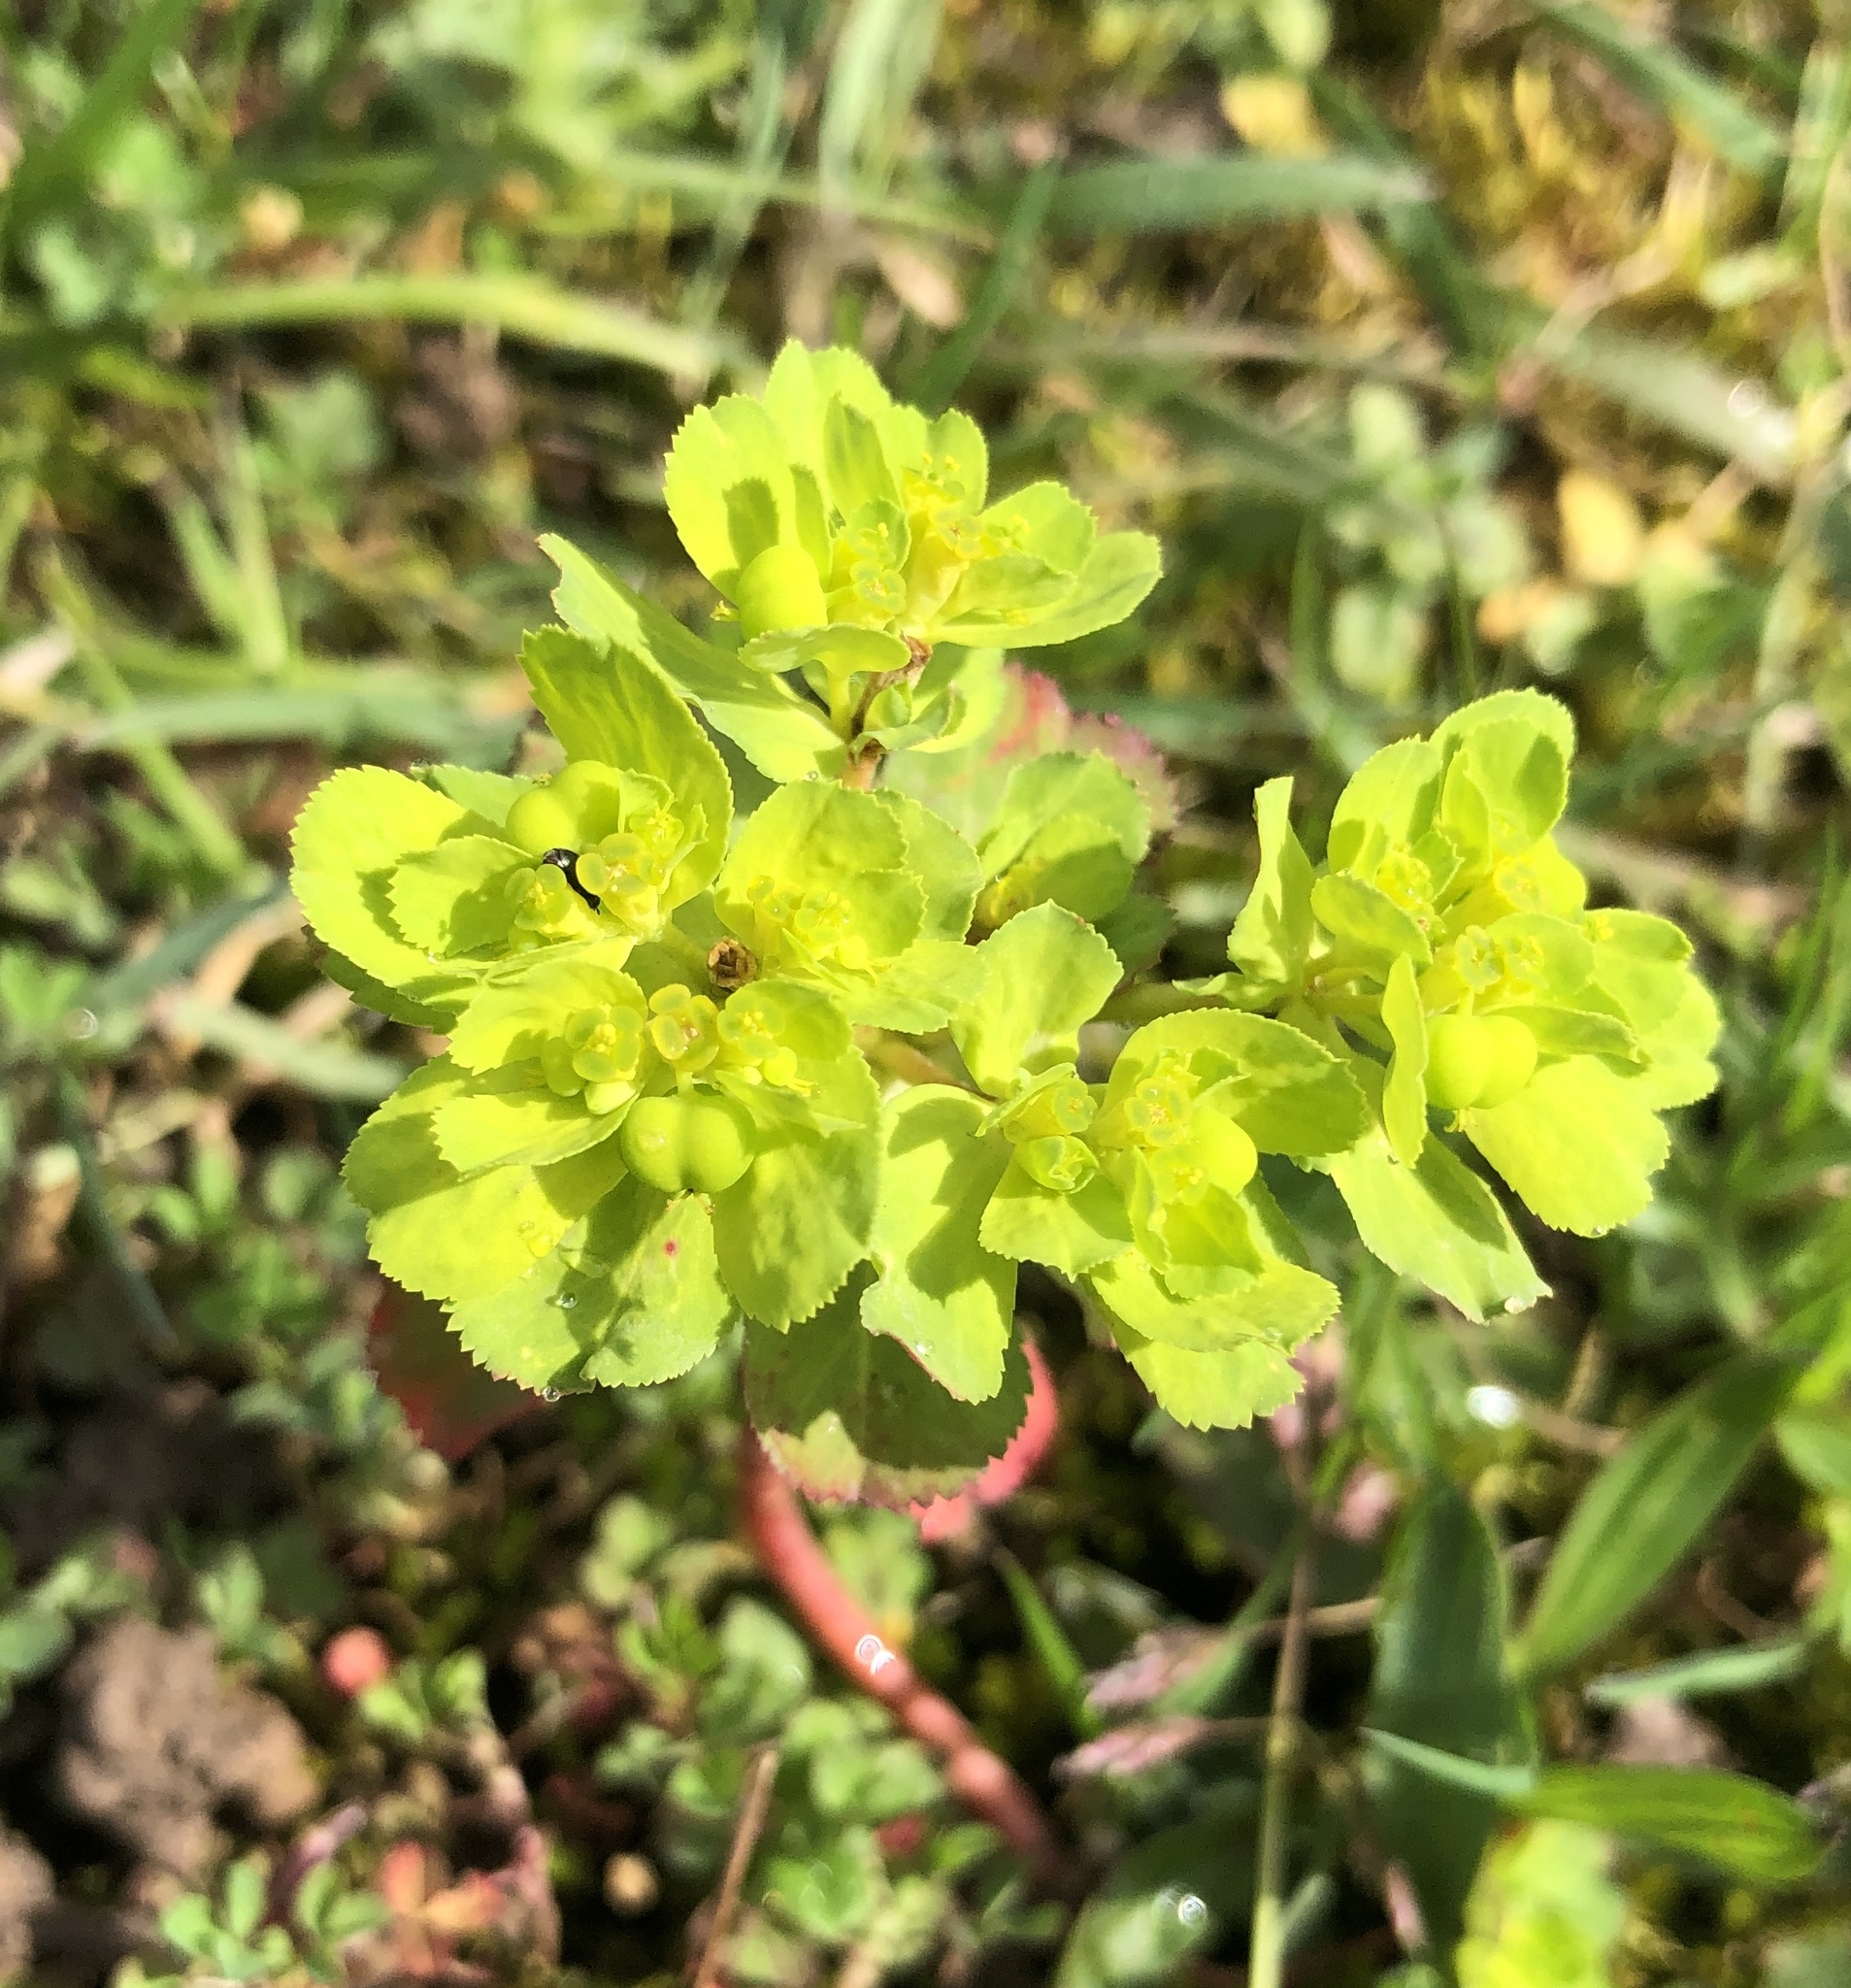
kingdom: Plantae
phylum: Tracheophyta
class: Magnoliopsida
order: Malpighiales
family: Euphorbiaceae
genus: Euphorbia
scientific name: Euphorbia helioscopia
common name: Sun spurge
